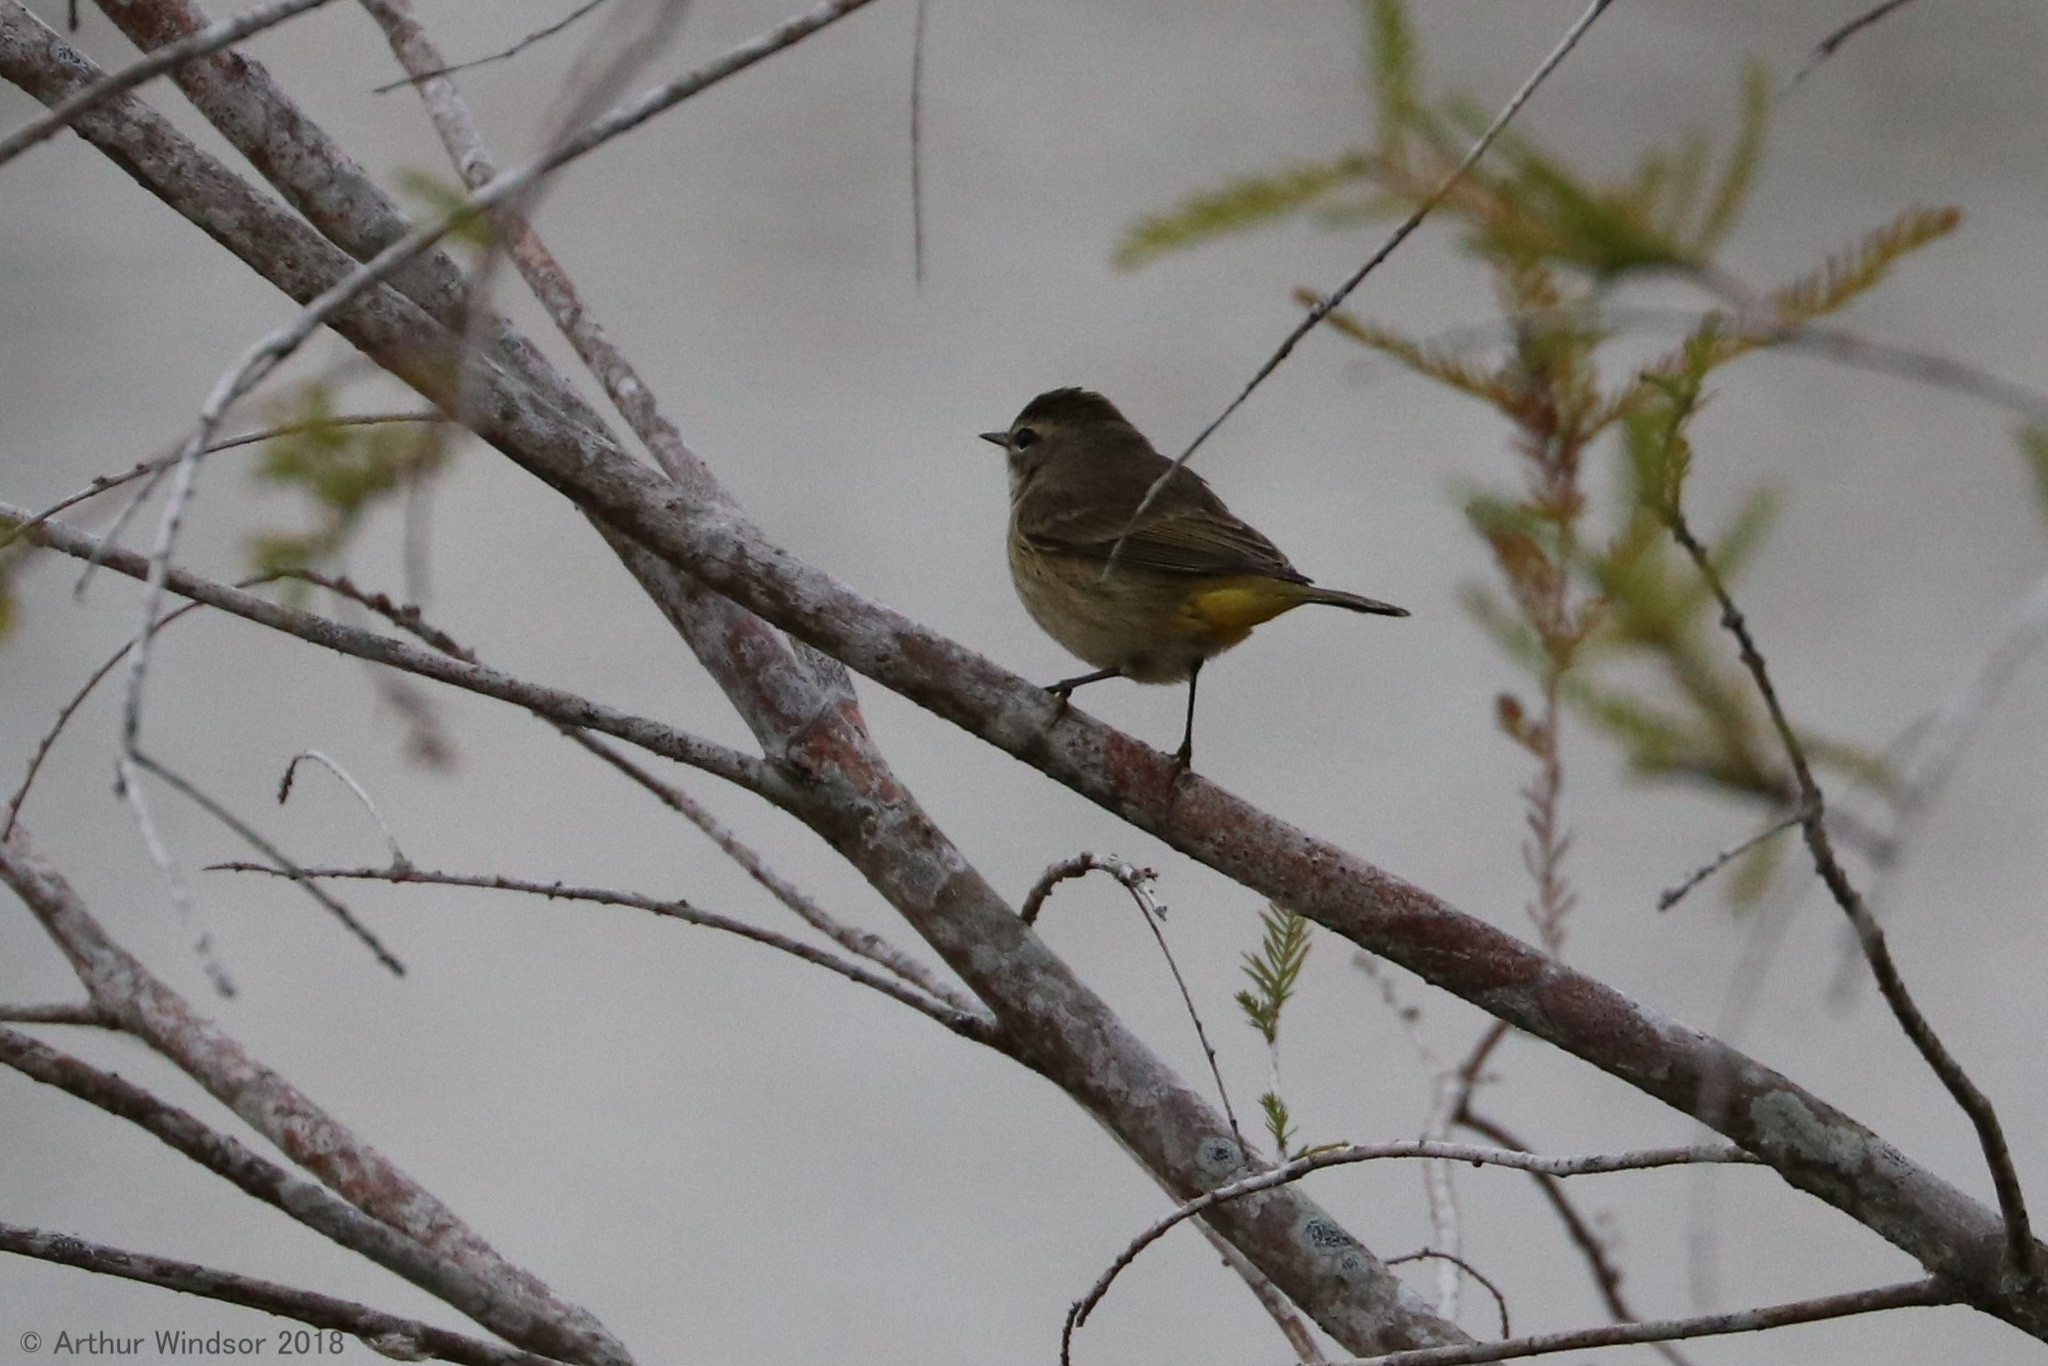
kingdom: Animalia
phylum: Chordata
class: Aves
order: Passeriformes
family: Parulidae
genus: Setophaga
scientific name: Setophaga palmarum
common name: Palm warbler
